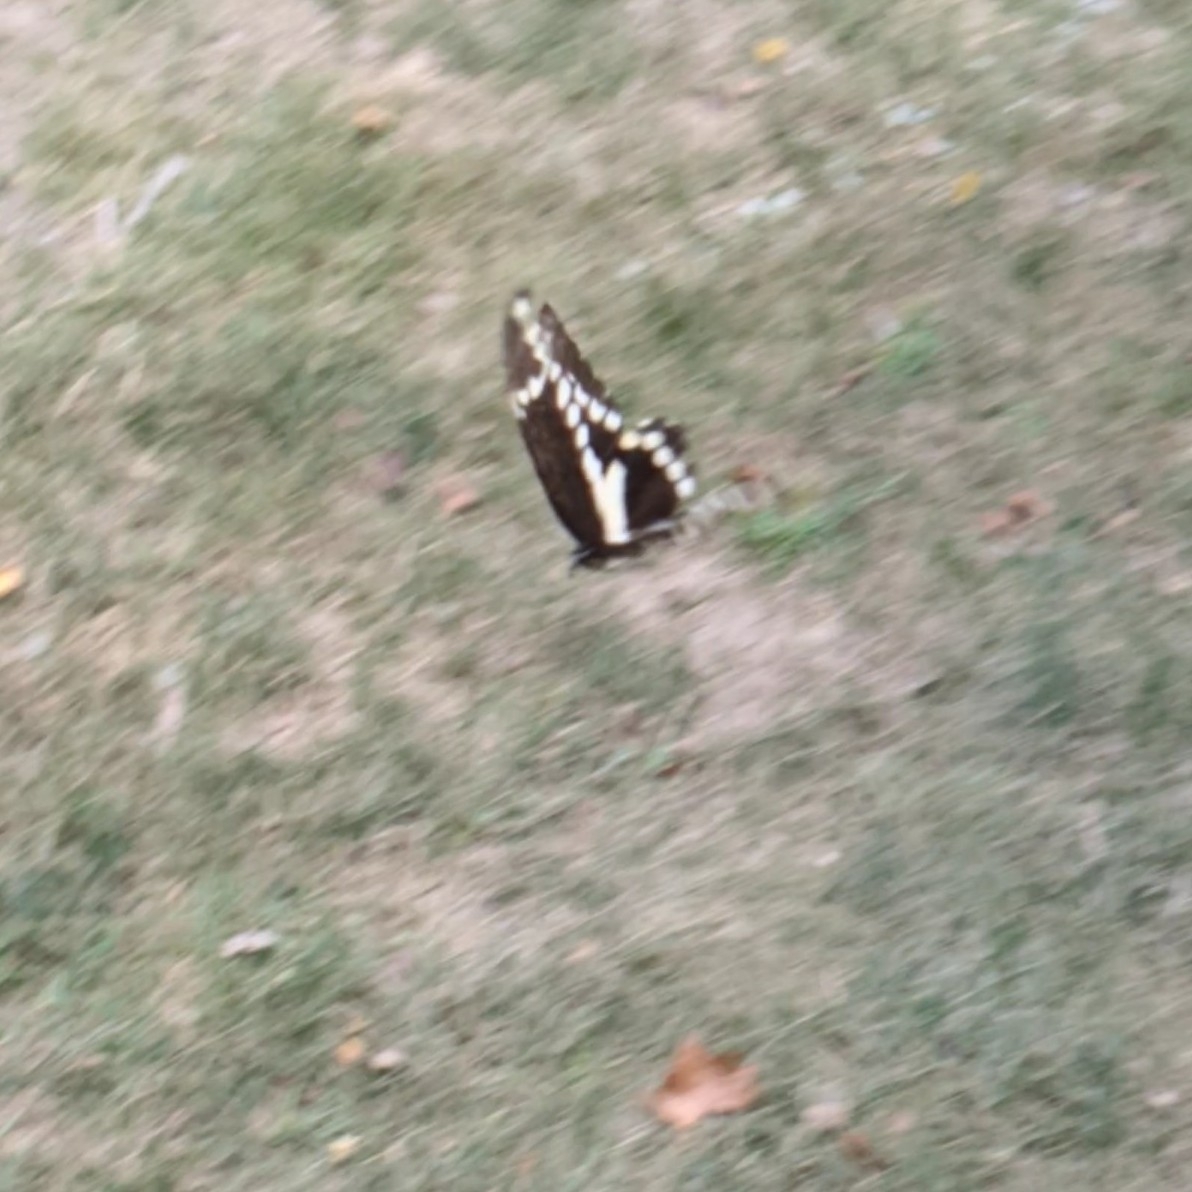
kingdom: Animalia
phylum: Arthropoda
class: Insecta
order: Lepidoptera
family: Papilionidae
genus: Papilio
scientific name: Papilio cresphontes
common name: Giant swallowtail
